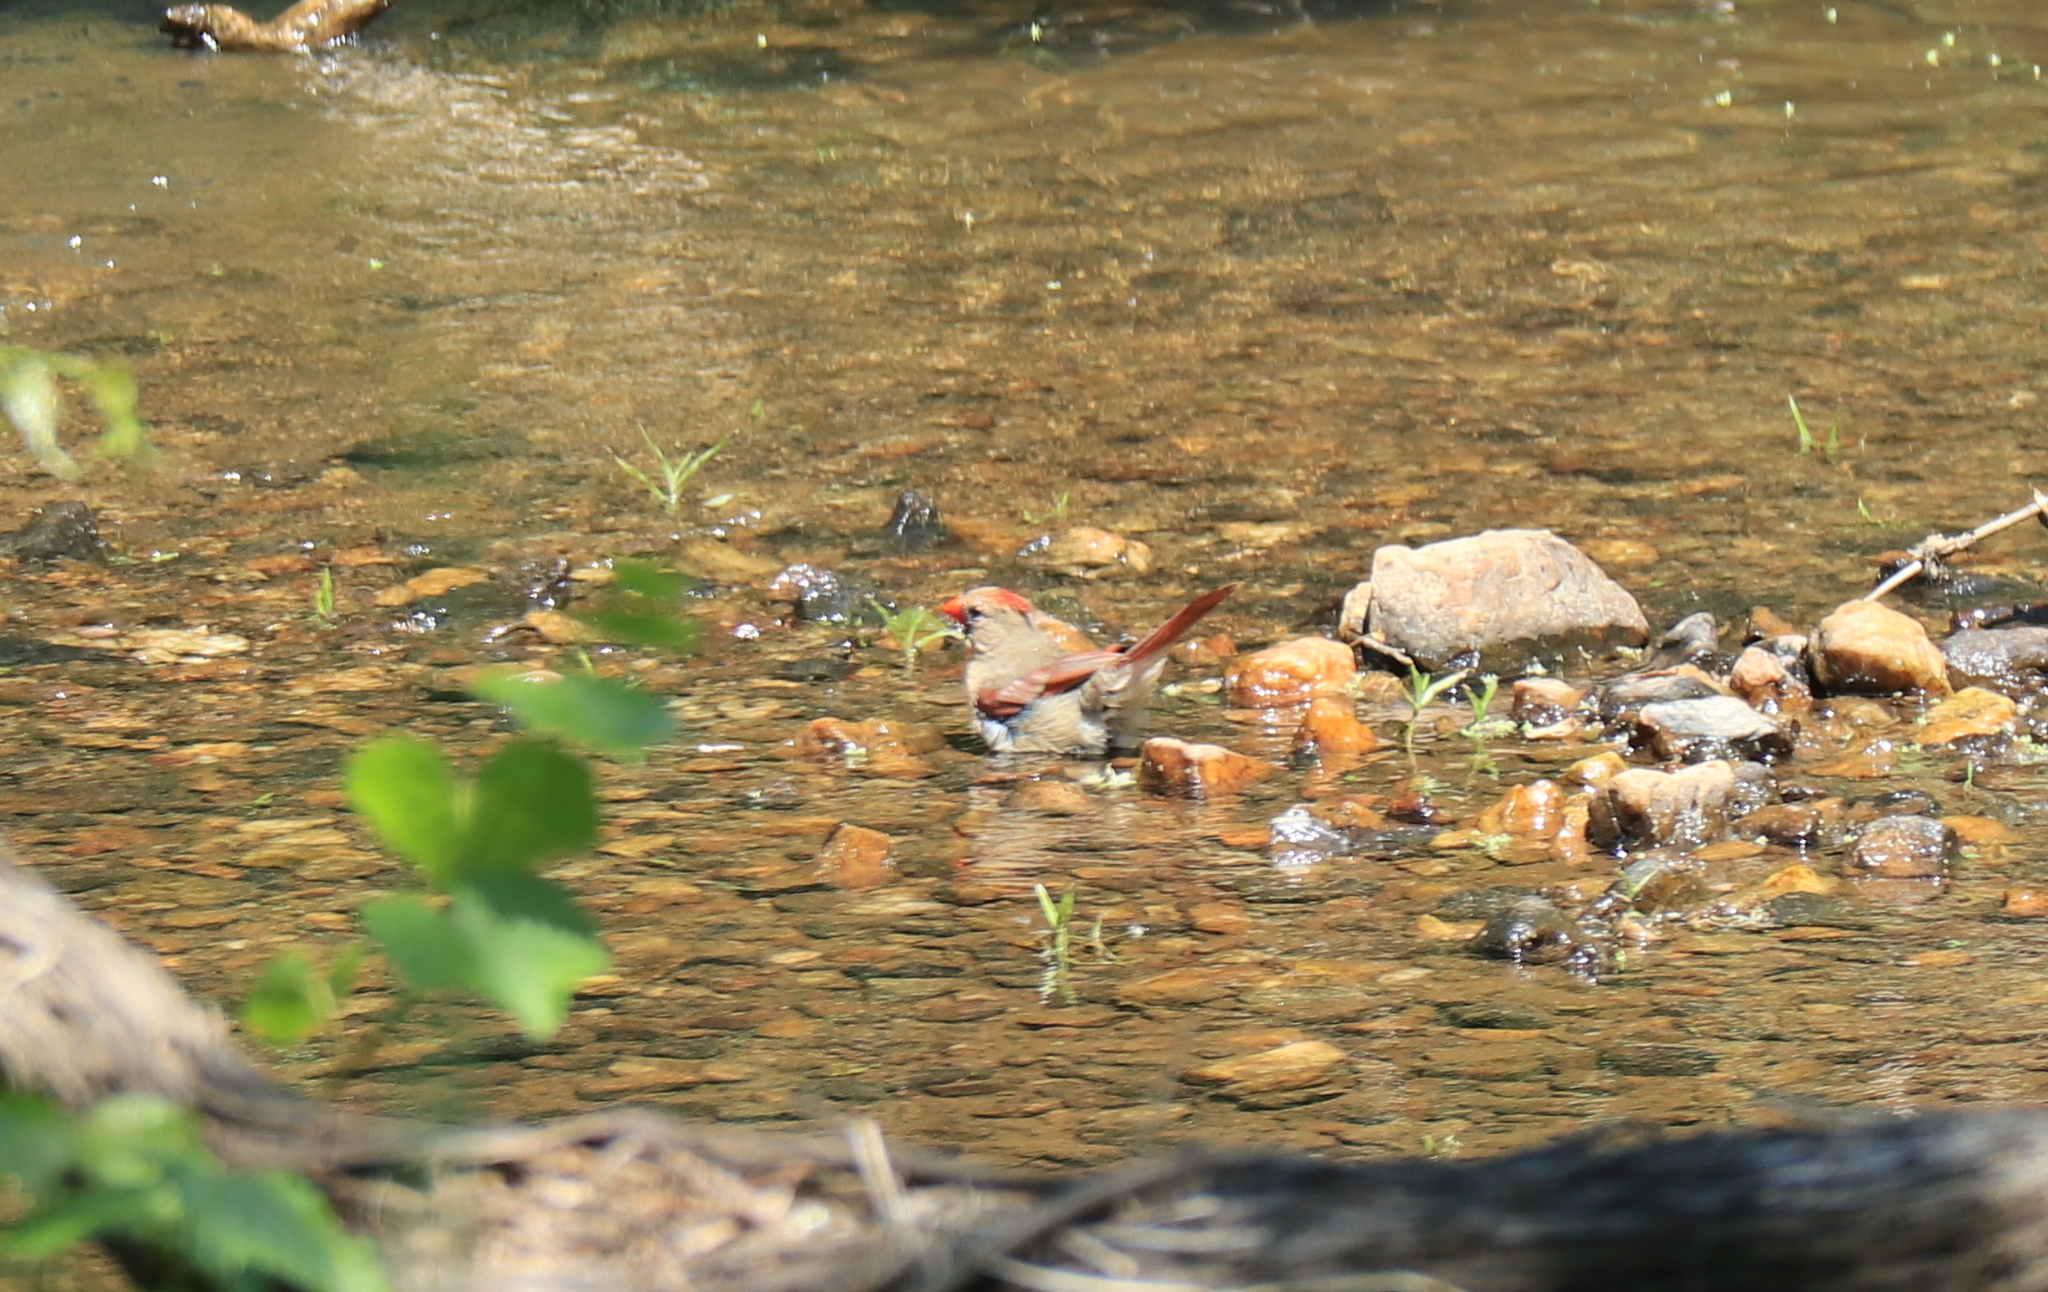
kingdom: Animalia
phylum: Chordata
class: Aves
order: Passeriformes
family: Cardinalidae
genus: Cardinalis
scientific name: Cardinalis cardinalis
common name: Northern cardinal
